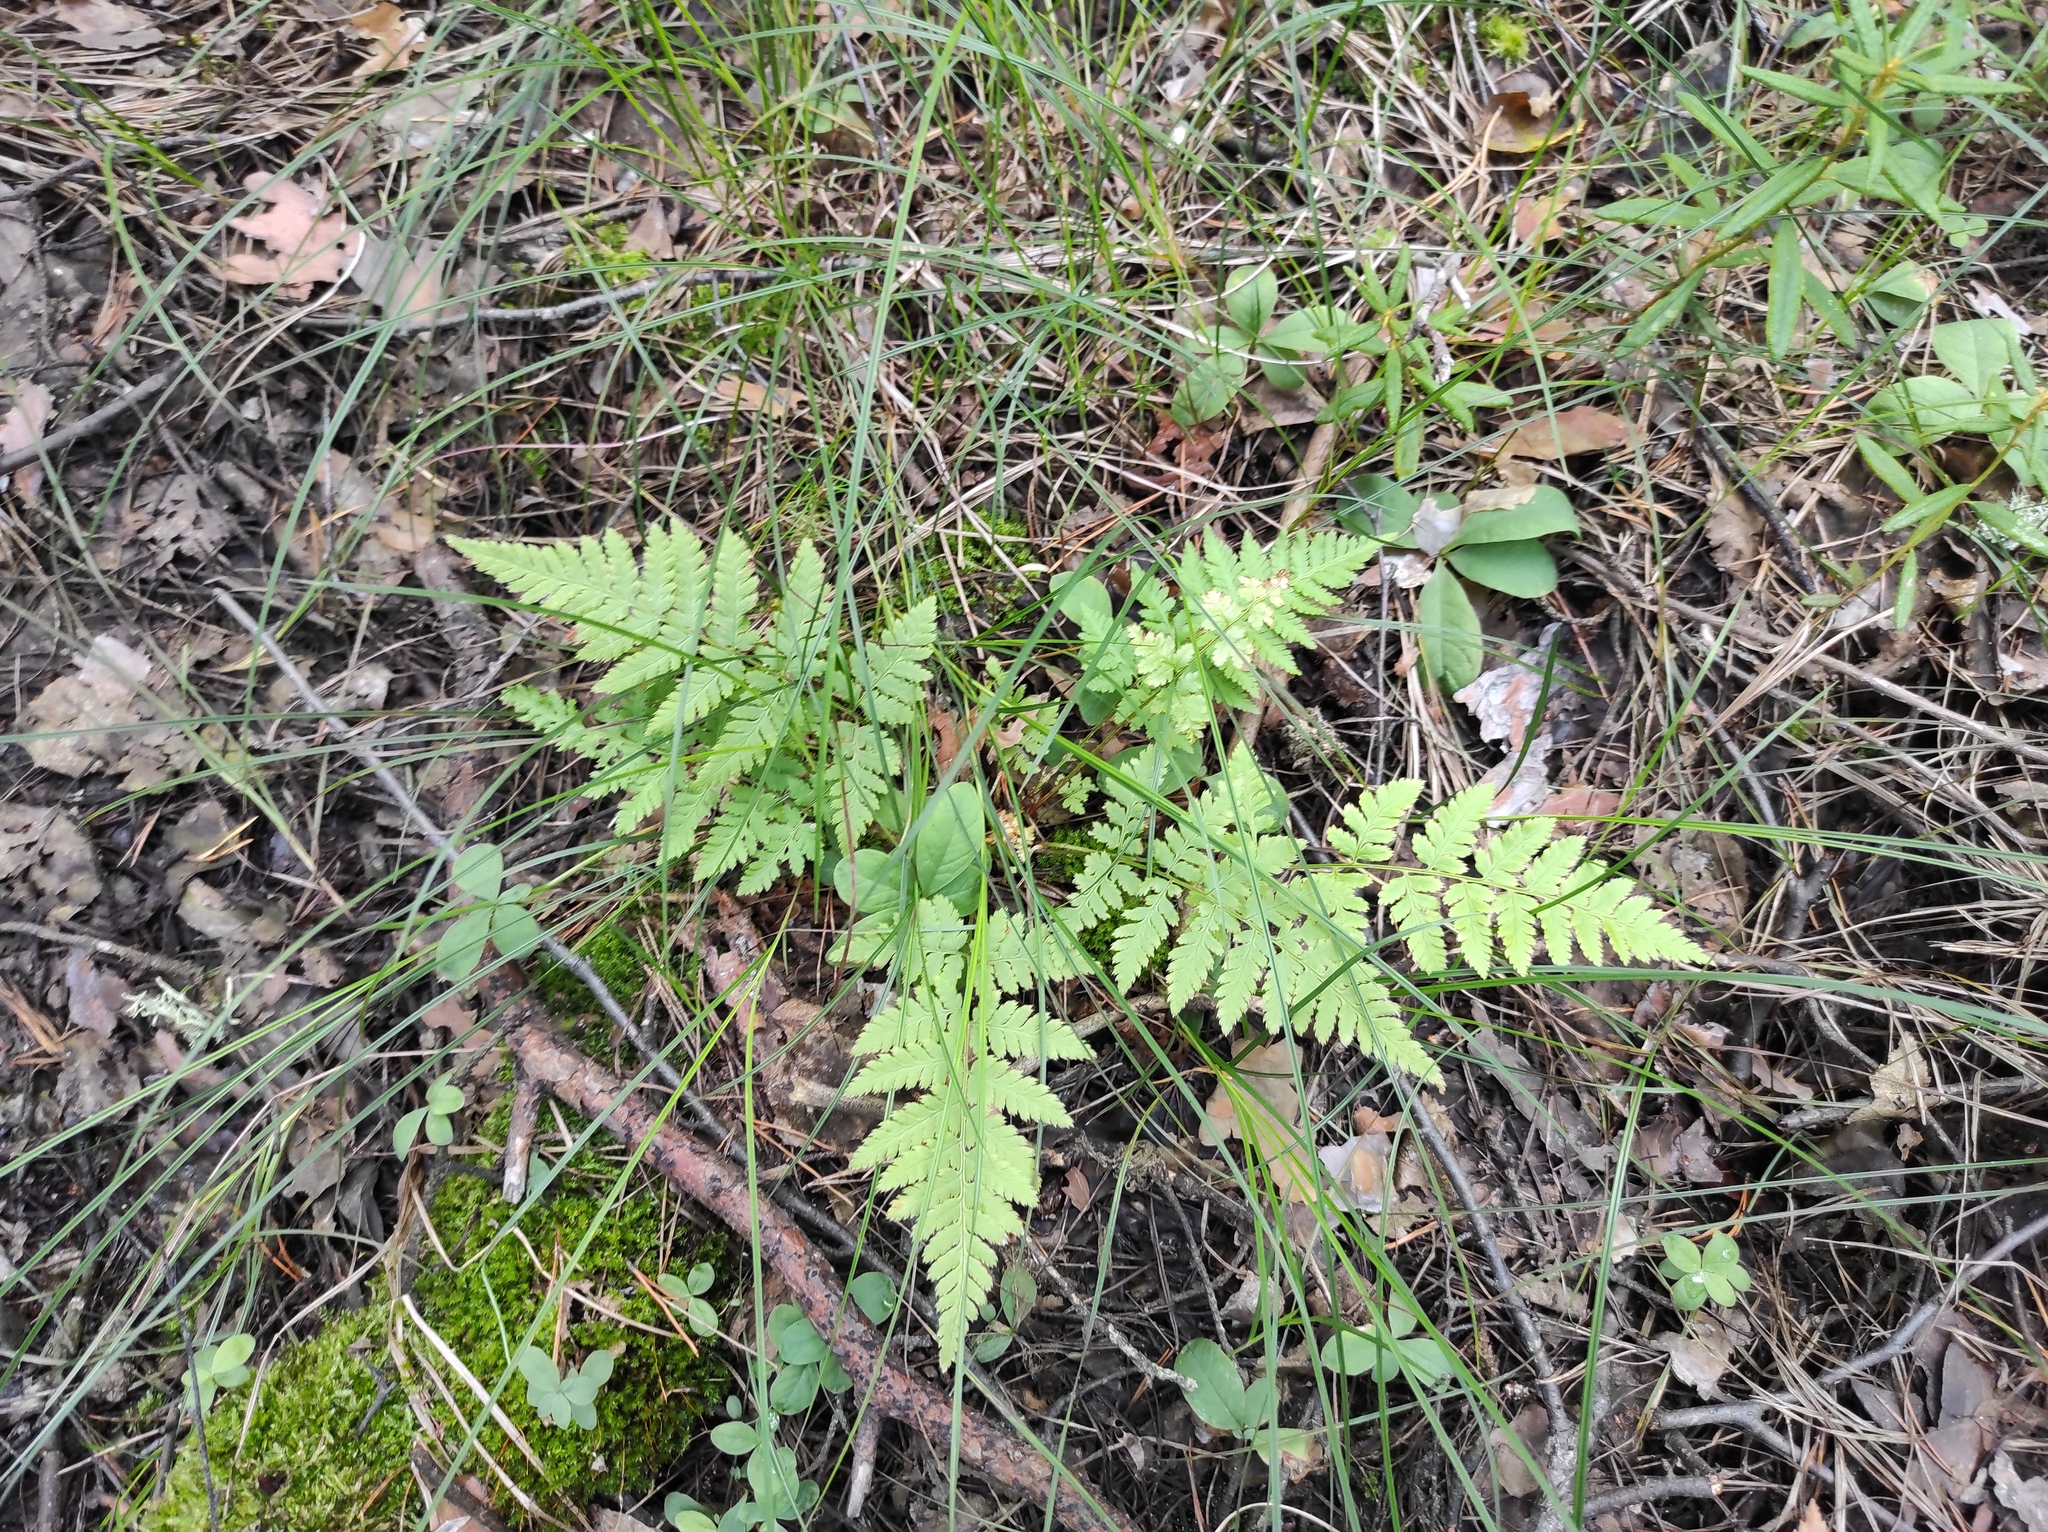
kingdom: Plantae
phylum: Tracheophyta
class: Polypodiopsida
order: Polypodiales
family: Dryopteridaceae
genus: Dryopteris
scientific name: Dryopteris carthusiana
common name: Narrow buckler-fern
